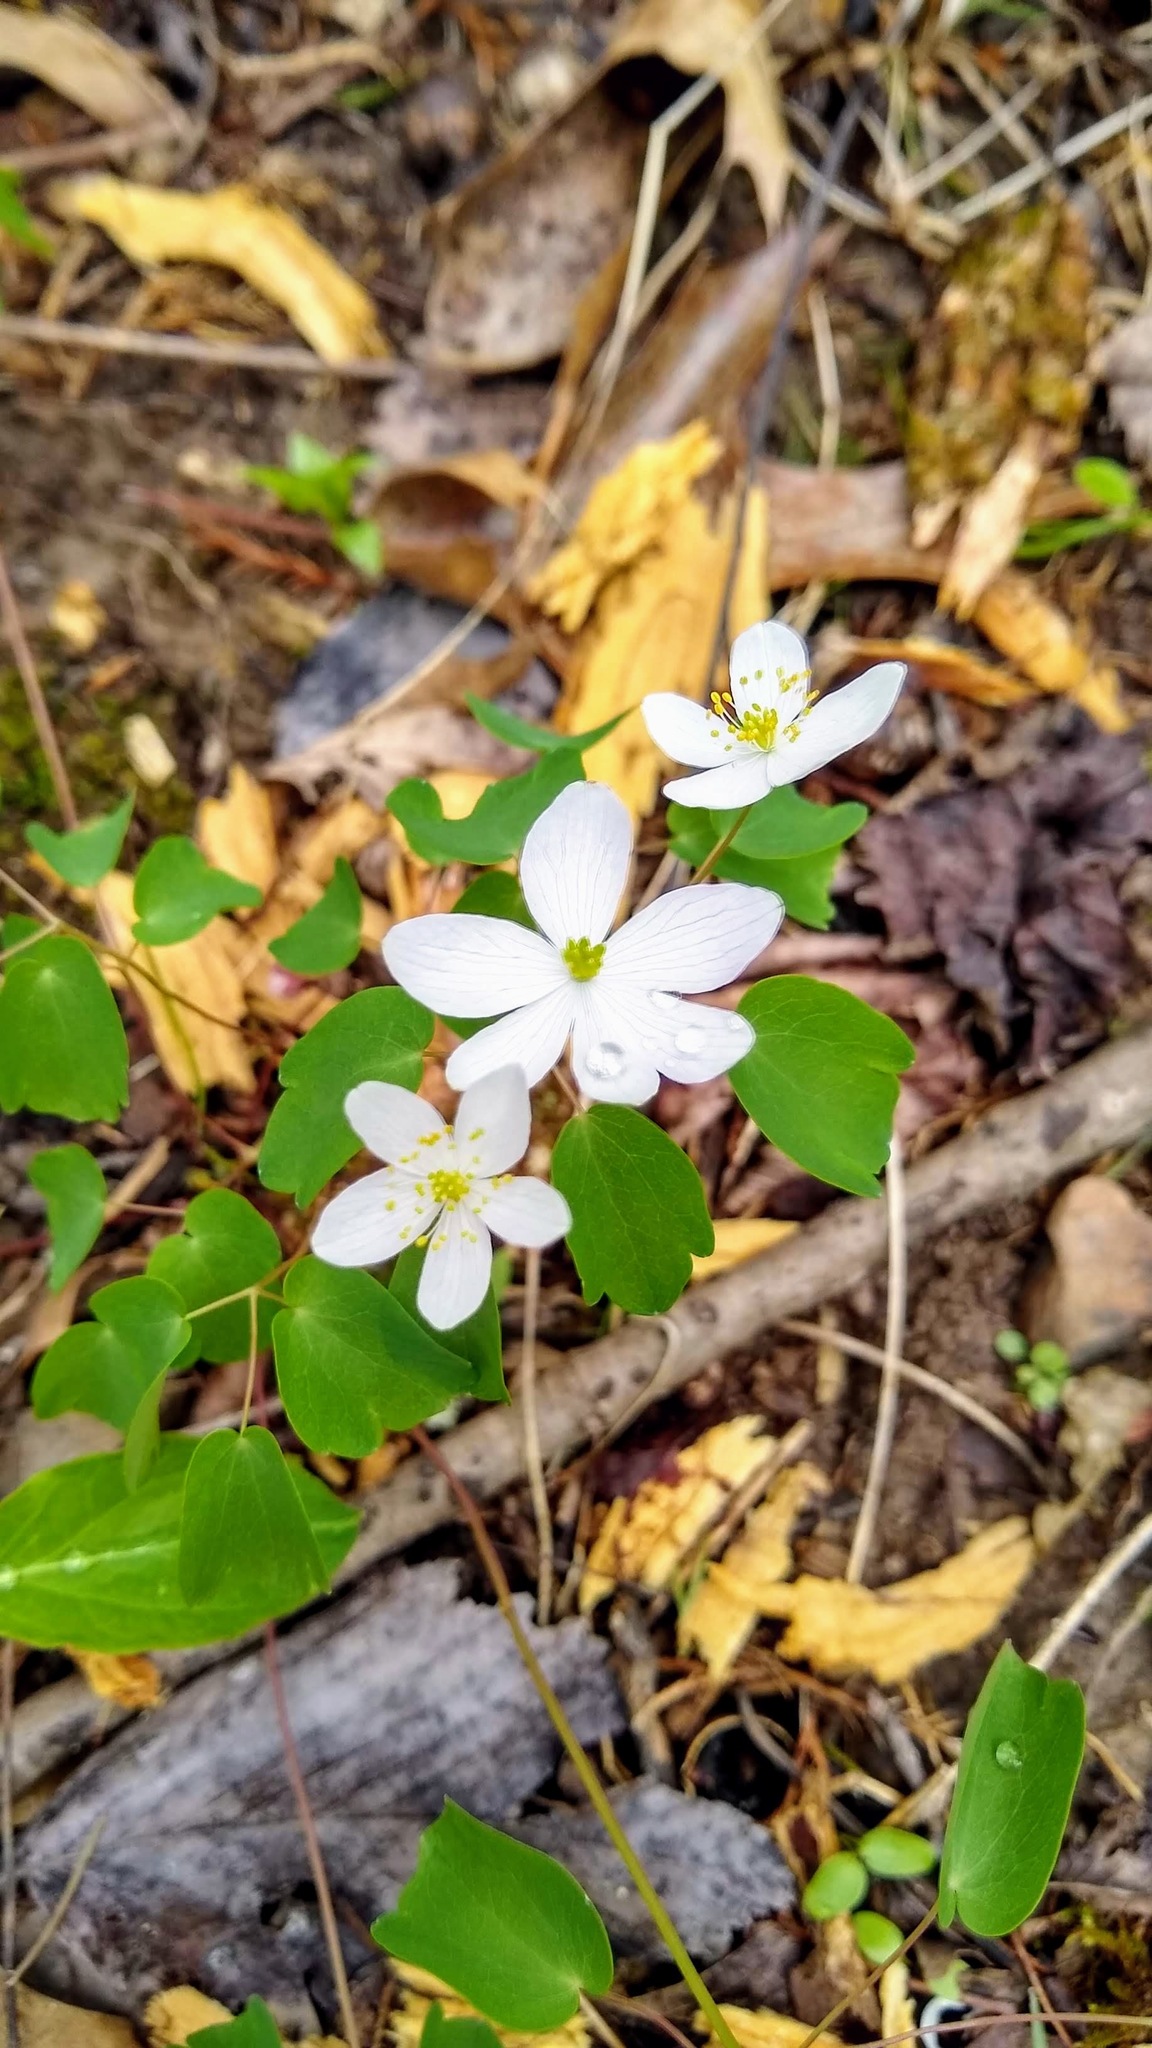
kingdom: Plantae
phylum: Tracheophyta
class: Magnoliopsida
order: Ranunculales
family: Ranunculaceae
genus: Thalictrum
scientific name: Thalictrum thalictroides
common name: Rue-anemone
